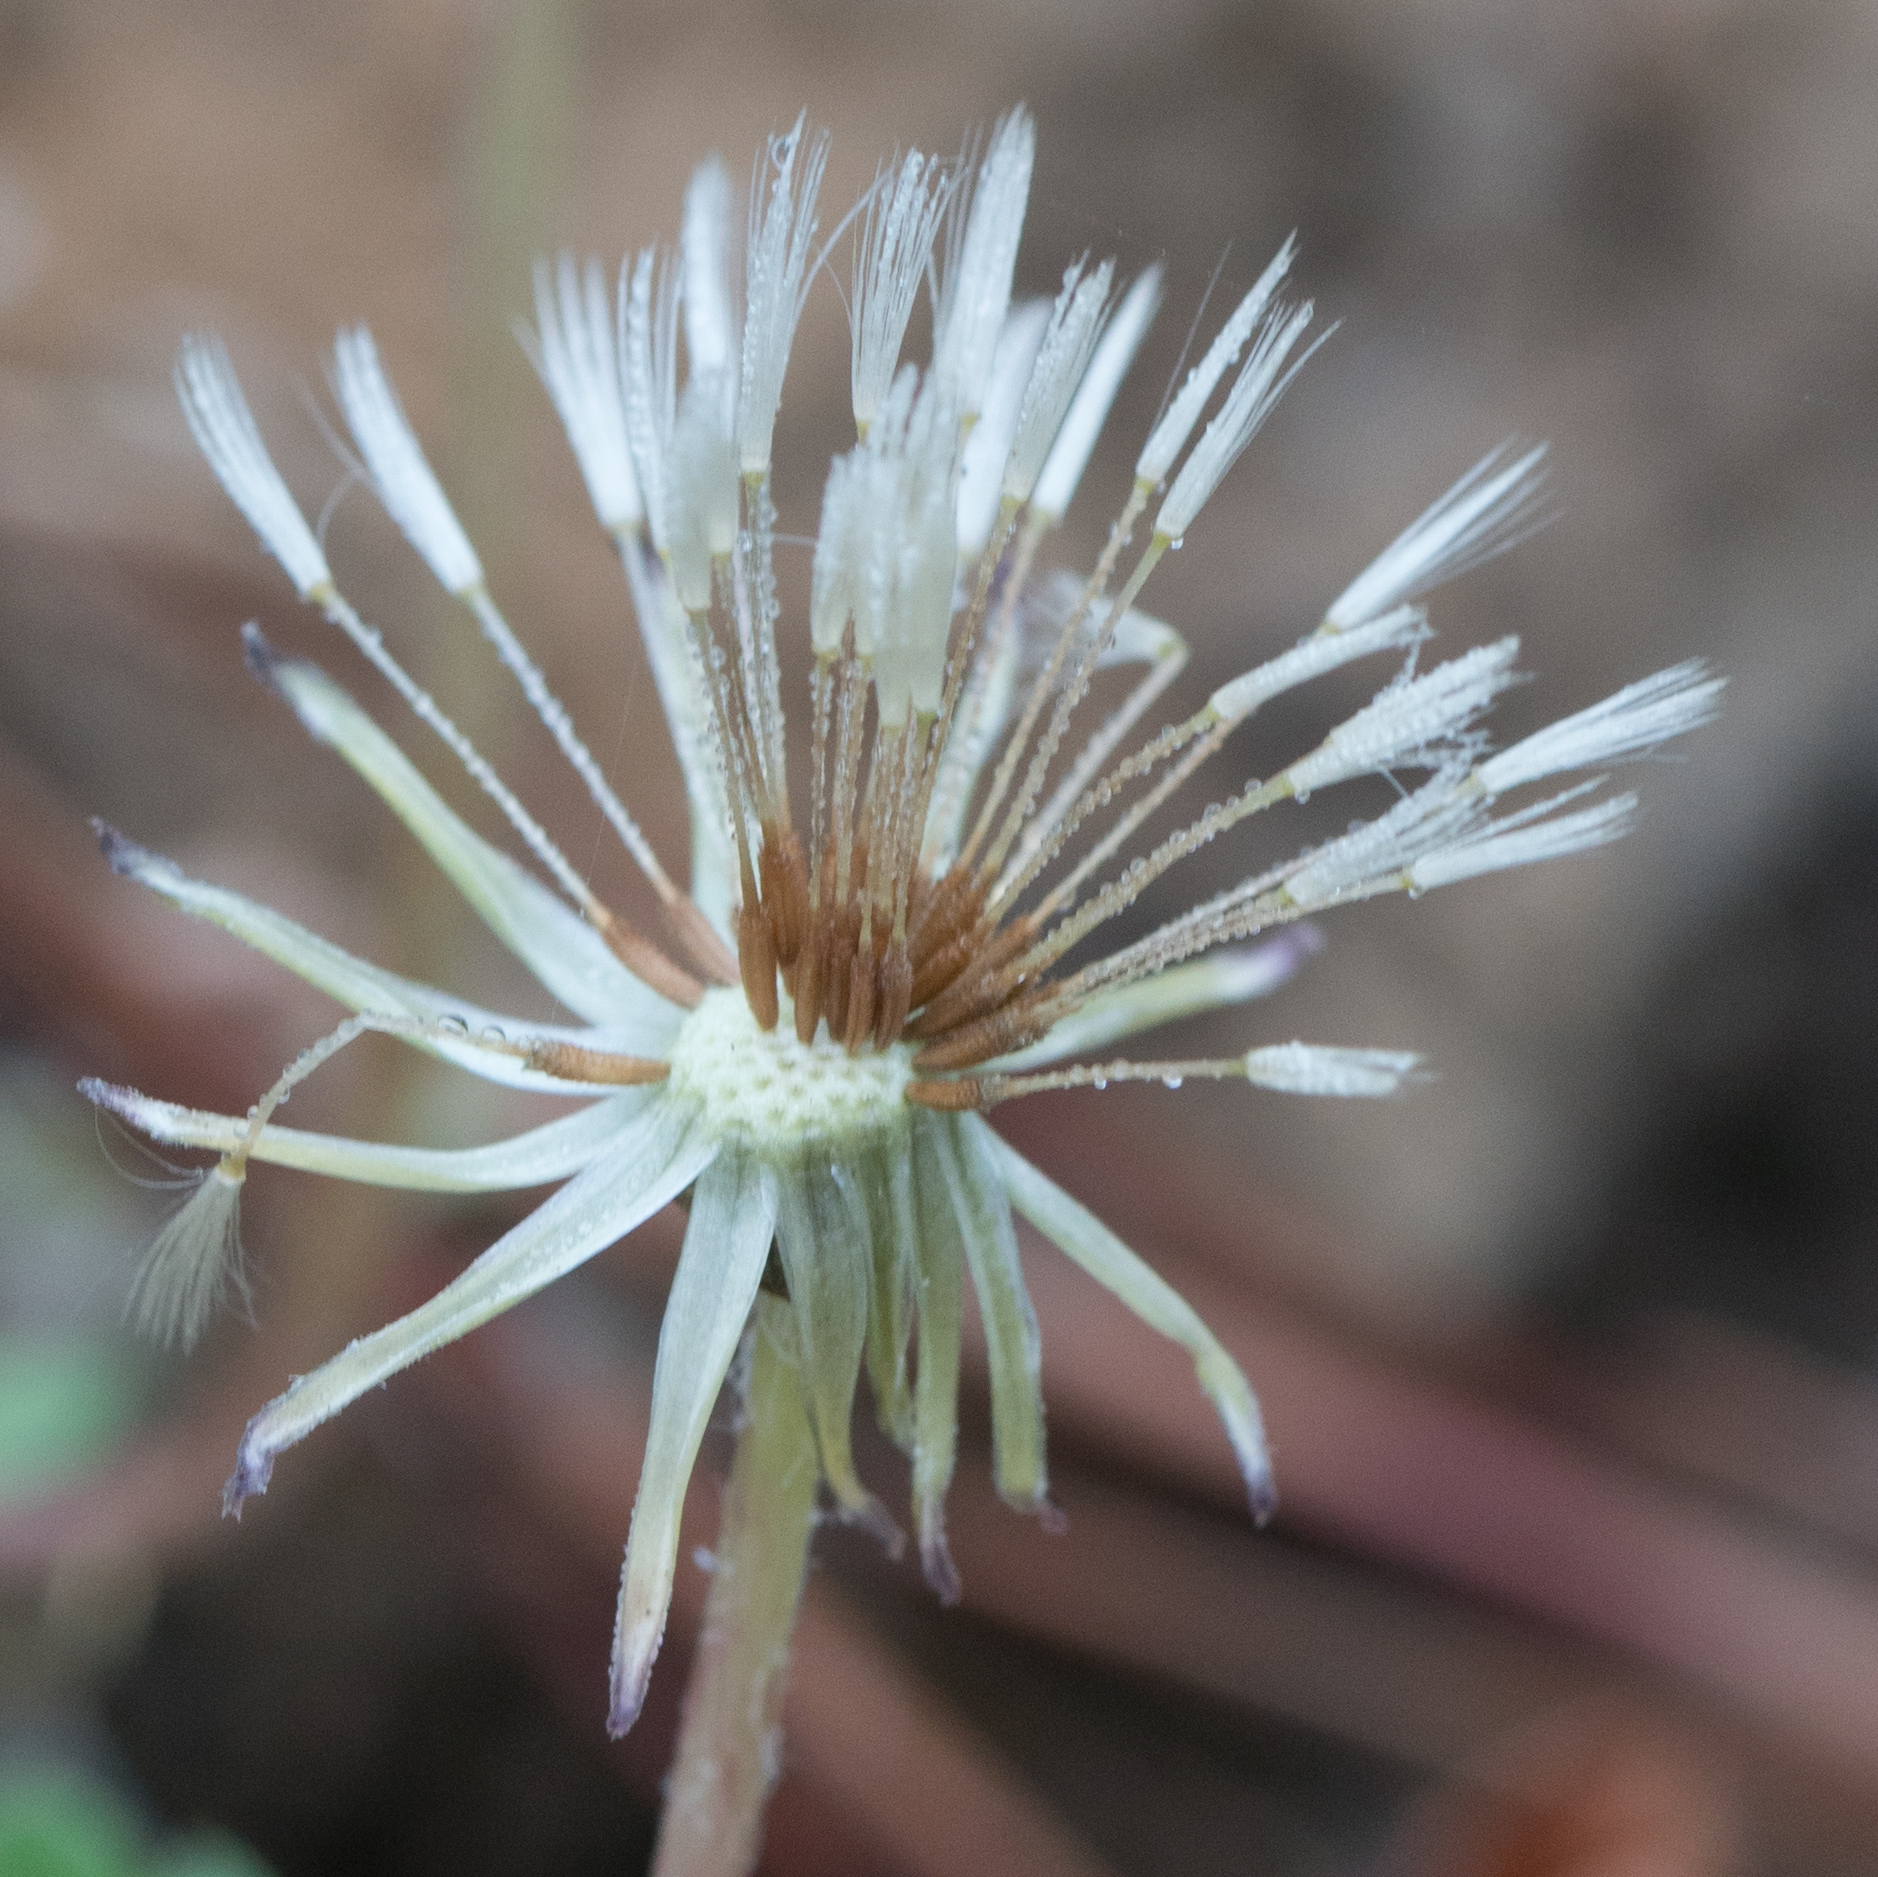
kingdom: Plantae
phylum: Tracheophyta
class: Magnoliopsida
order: Asterales
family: Asteraceae
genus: Taraxacum
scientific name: Taraxacum officinale
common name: Common dandelion
